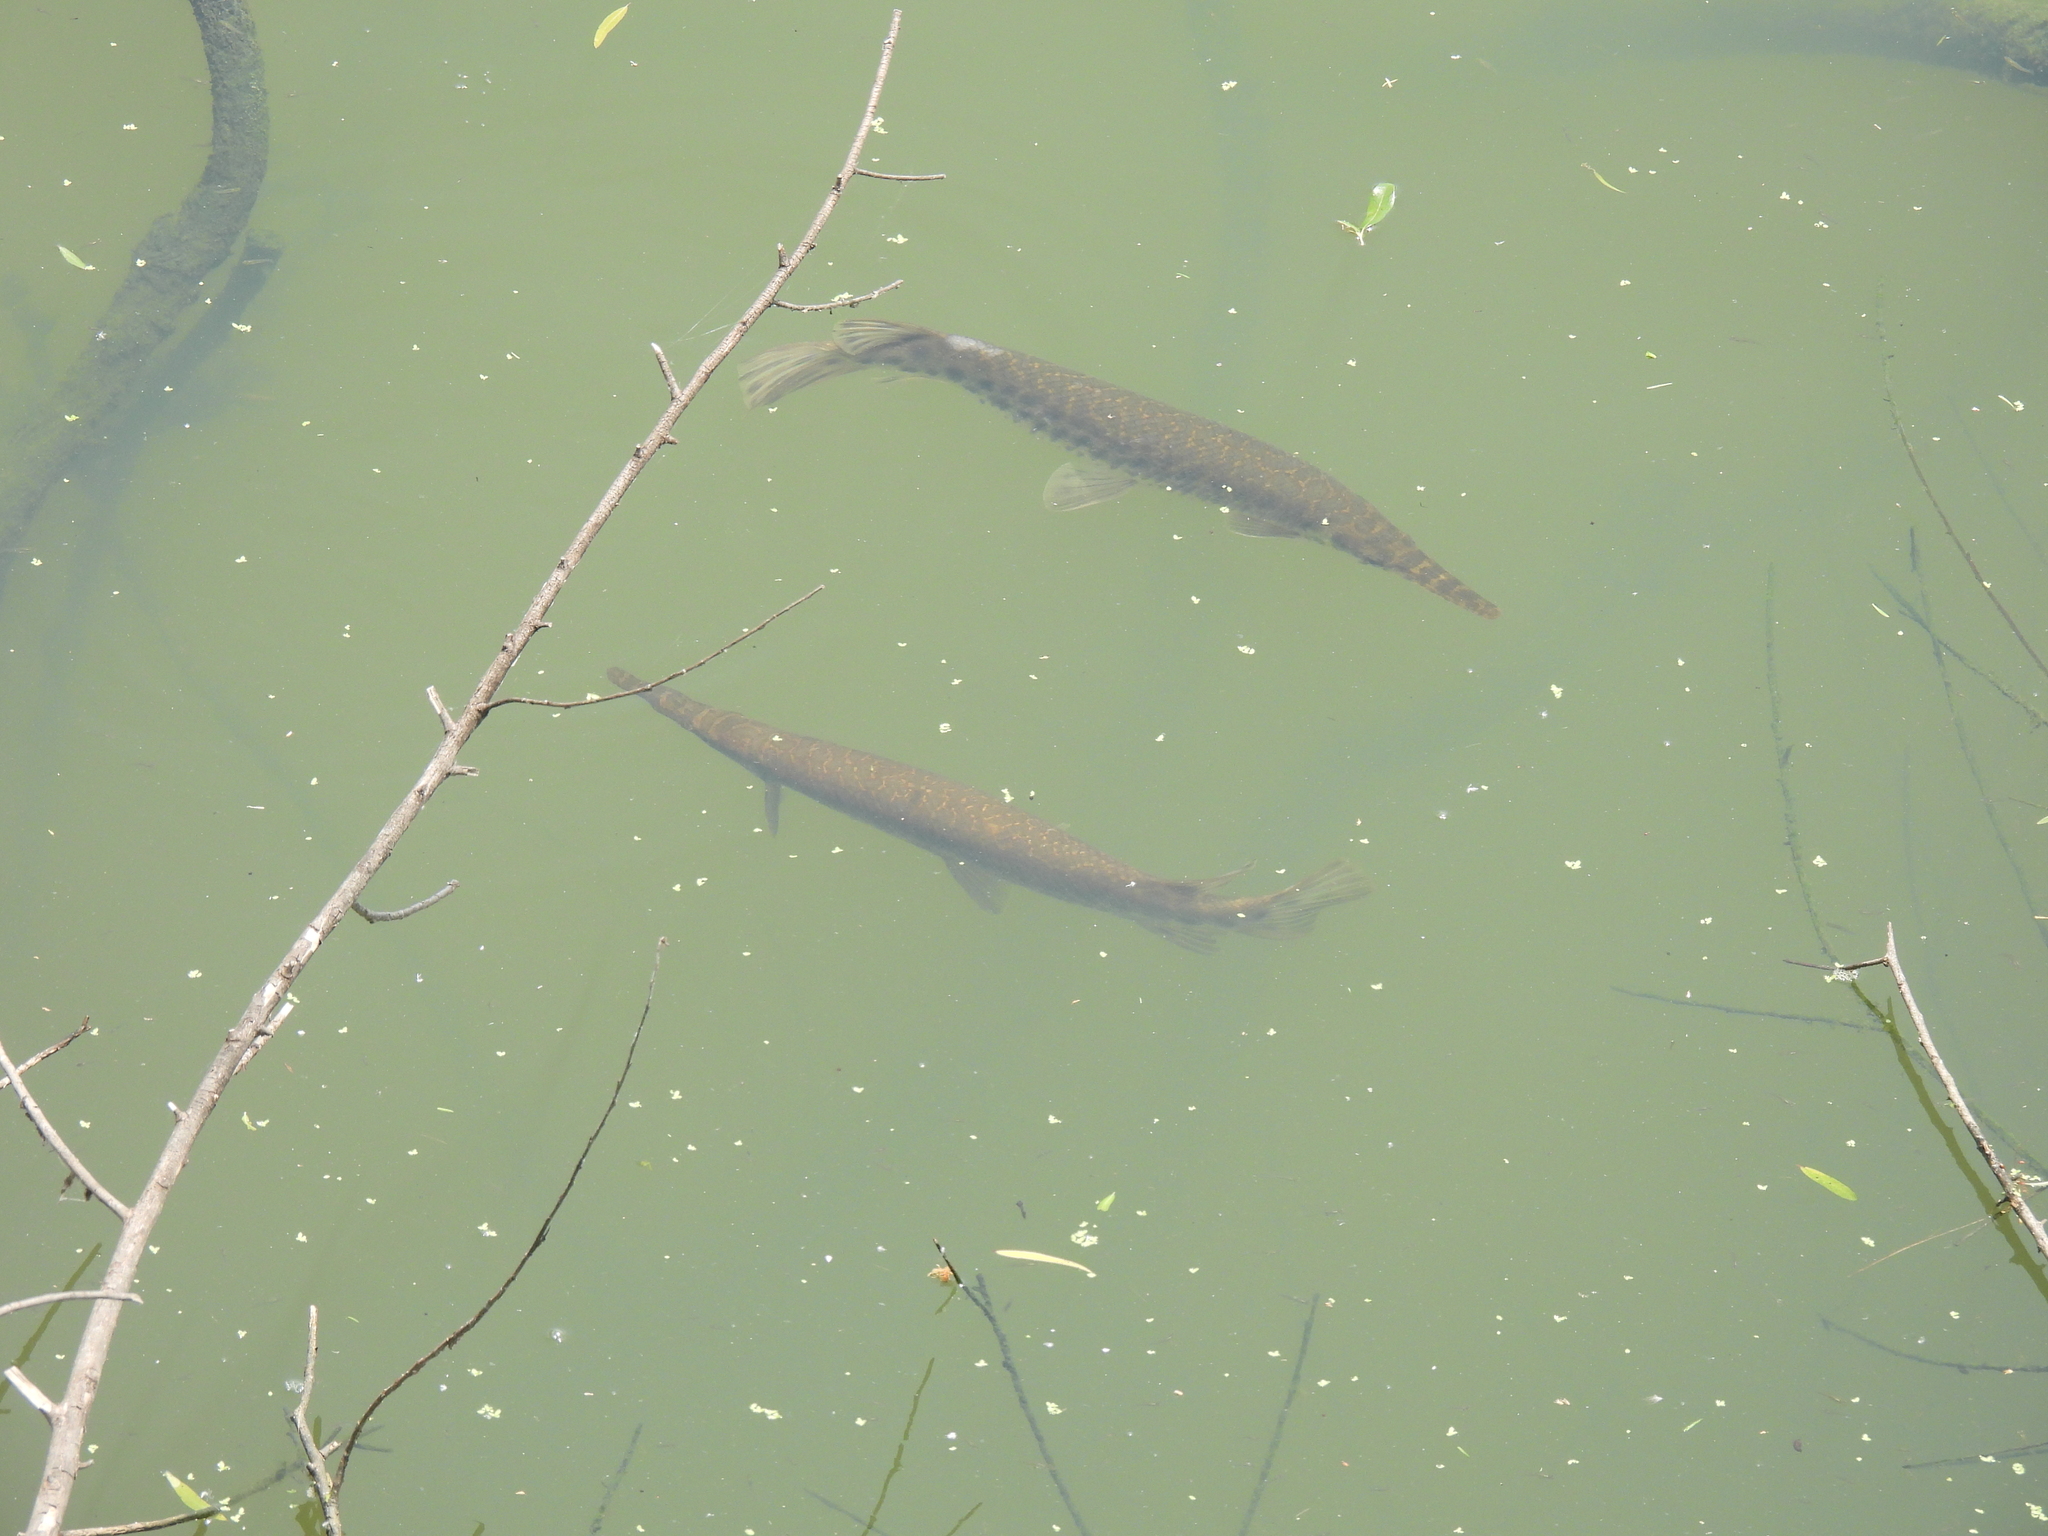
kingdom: Animalia
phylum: Chordata
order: Lepisosteiformes
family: Lepisosteidae
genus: Lepisosteus
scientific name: Lepisosteus oculatus
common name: Spotted gar
